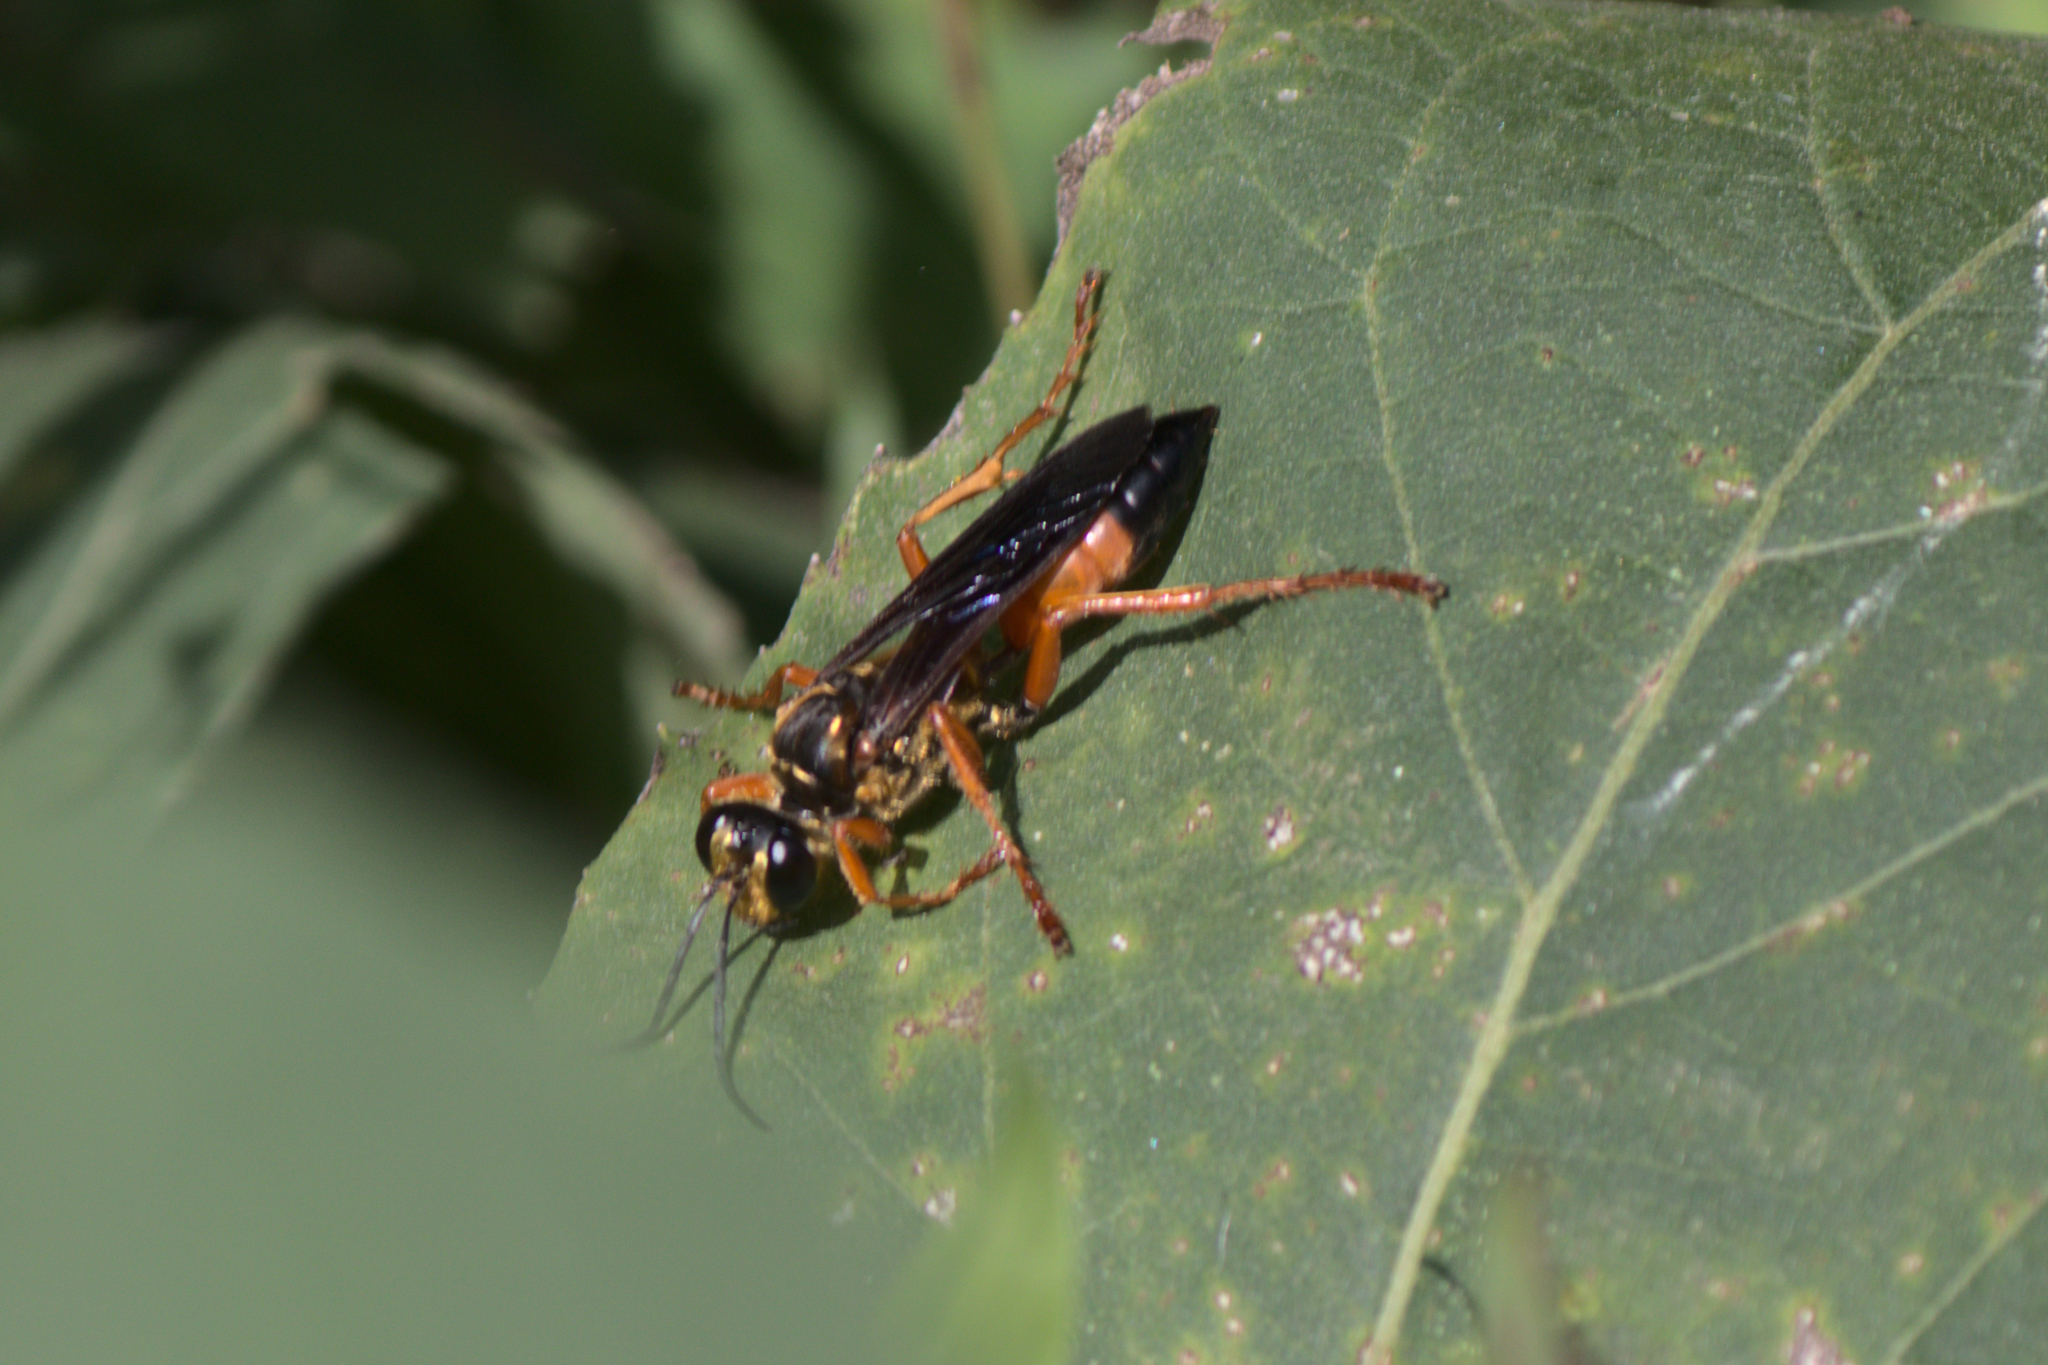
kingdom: Animalia
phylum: Arthropoda
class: Insecta
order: Hymenoptera
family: Sphecidae
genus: Sphex
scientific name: Sphex ichneumoneus
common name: Great golden digger wasp
